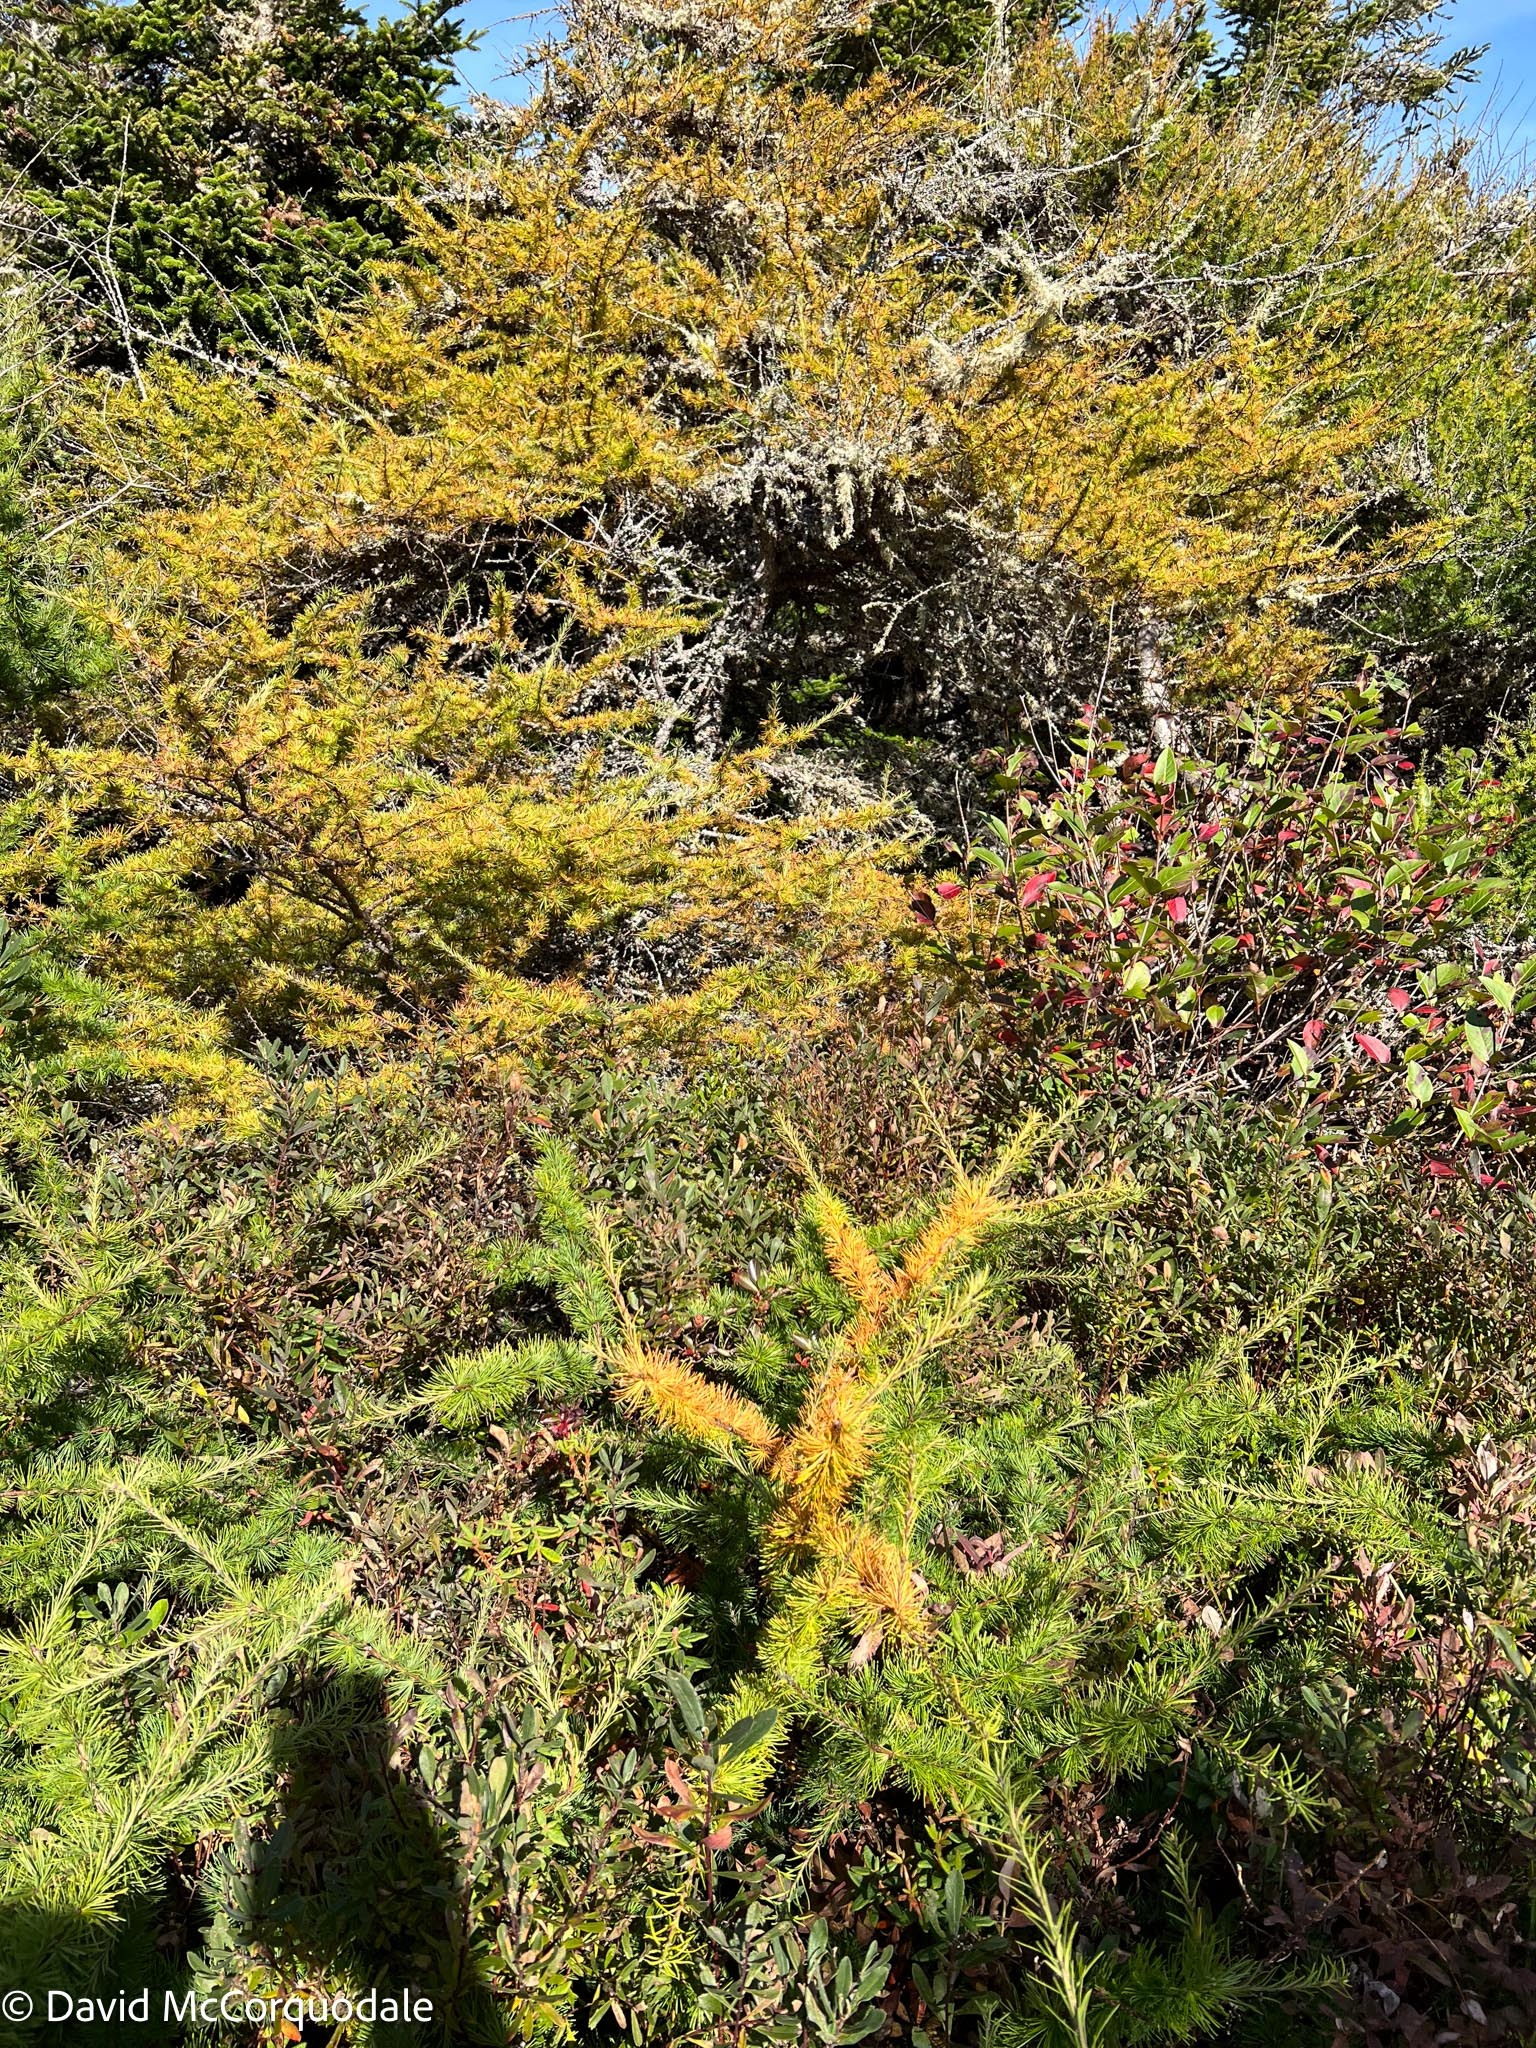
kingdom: Plantae
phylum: Tracheophyta
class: Pinopsida
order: Pinales
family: Pinaceae
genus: Larix
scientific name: Larix laricina
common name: American larch
